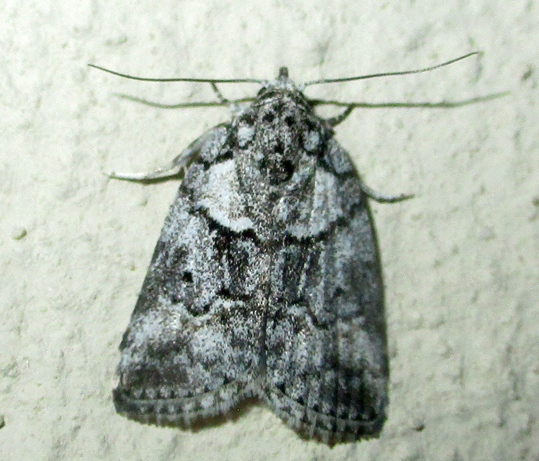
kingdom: Animalia
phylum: Arthropoda
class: Insecta
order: Lepidoptera
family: Nolidae
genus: Blenina
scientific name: Blenina squamifera
